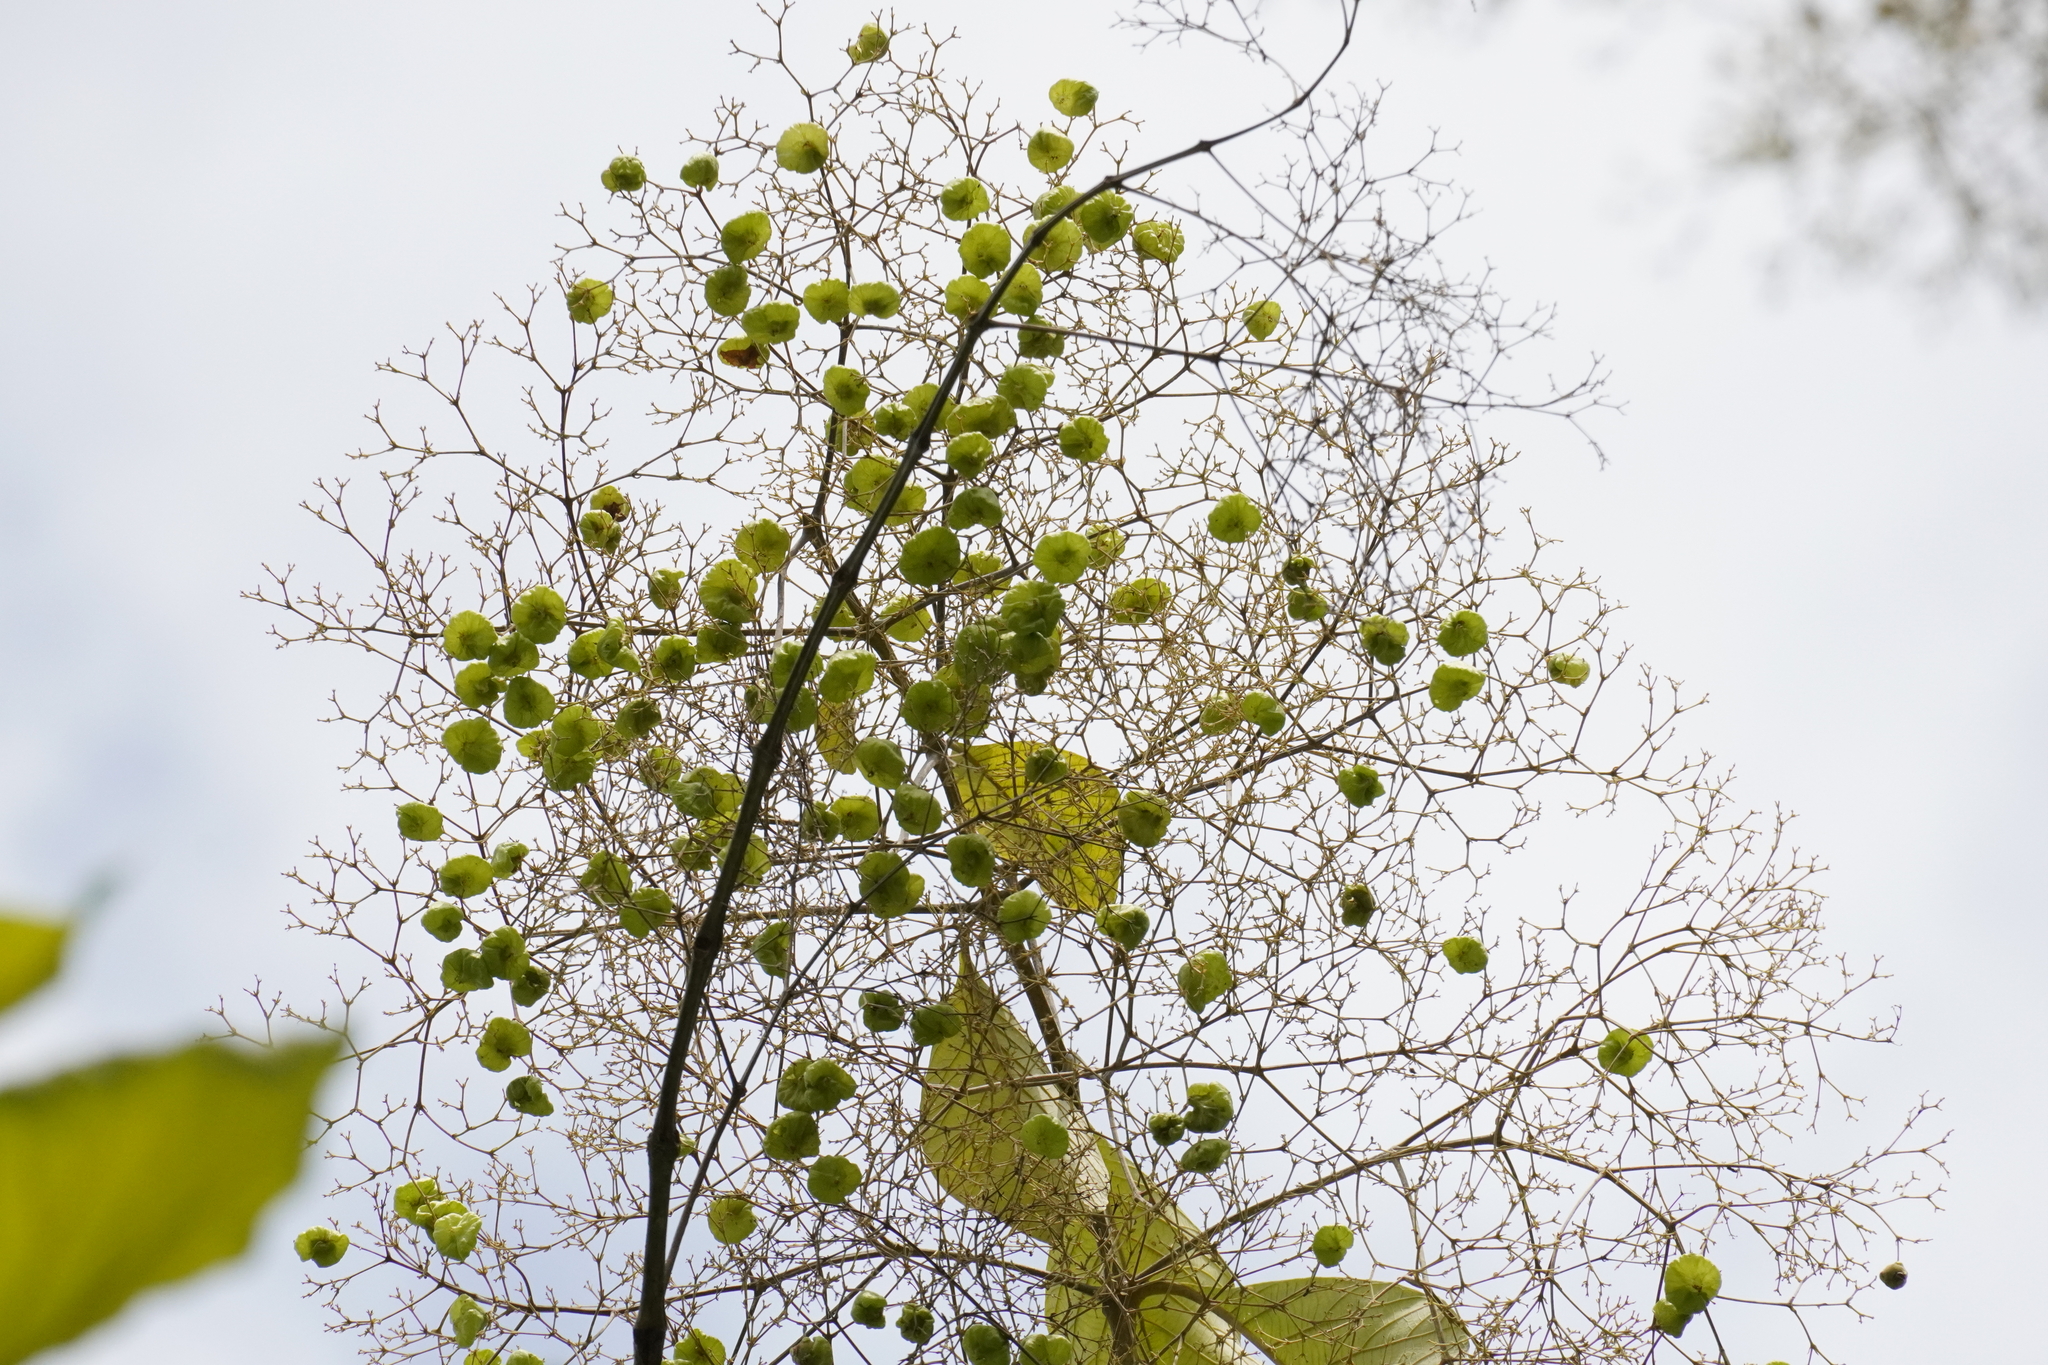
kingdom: Plantae
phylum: Tracheophyta
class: Magnoliopsida
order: Lamiales
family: Lamiaceae
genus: Tectona
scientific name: Tectona grandis
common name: Teak
